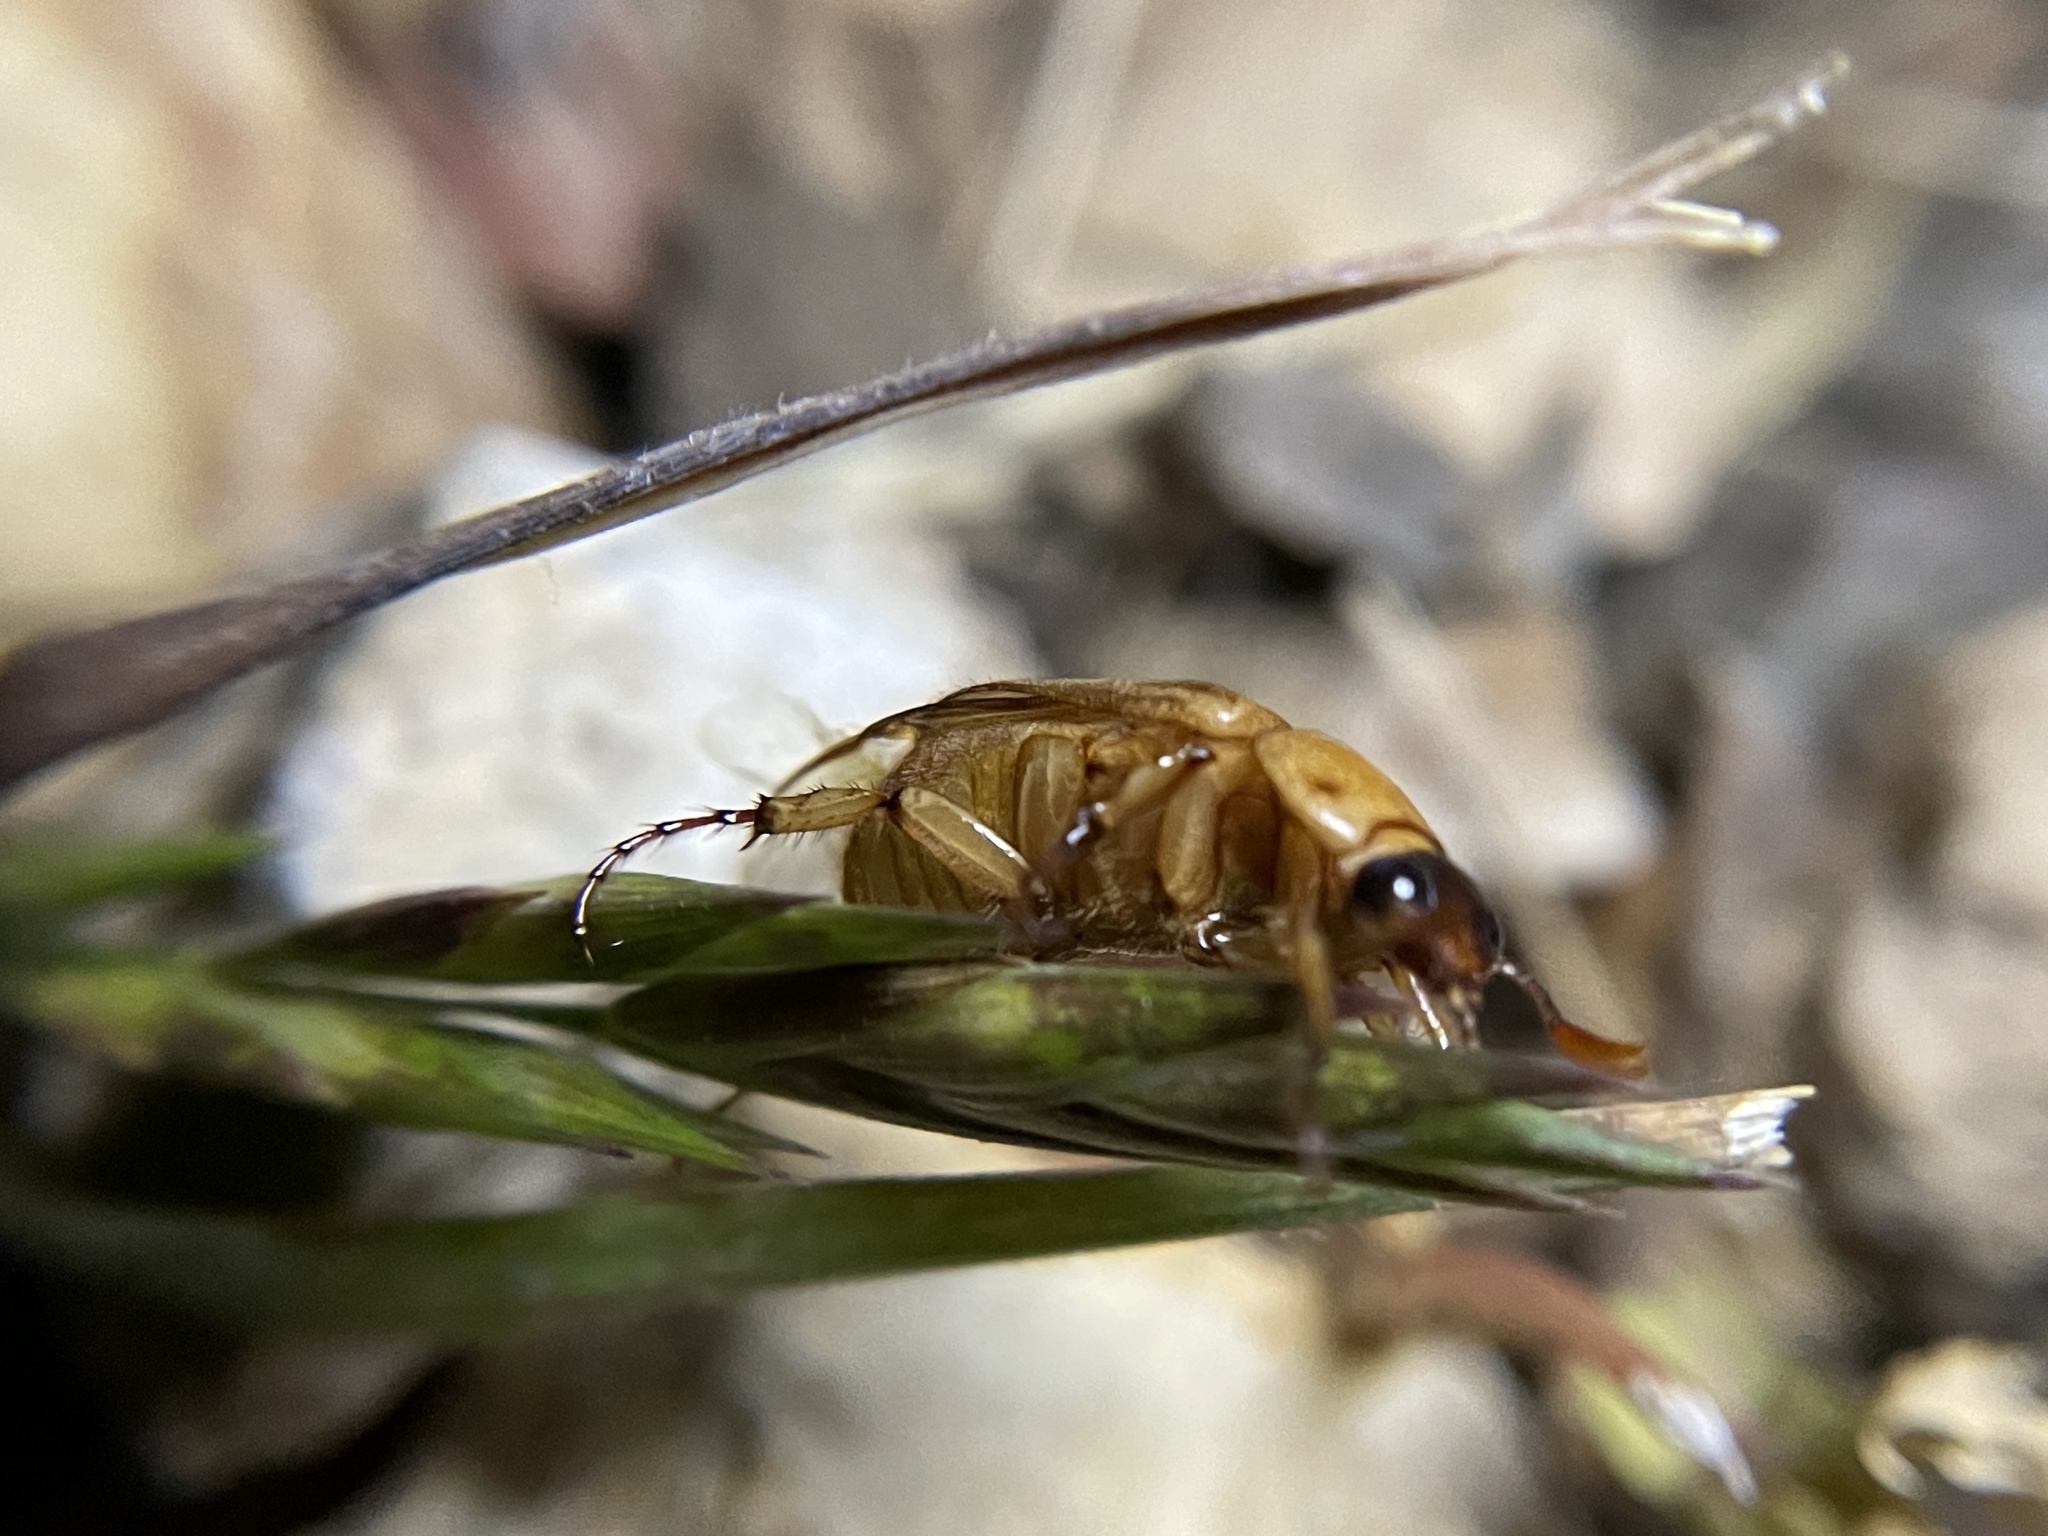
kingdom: Animalia
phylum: Arthropoda
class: Insecta
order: Coleoptera
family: Scarabaeidae
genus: Cyclocephala
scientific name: Cyclocephala lurida
